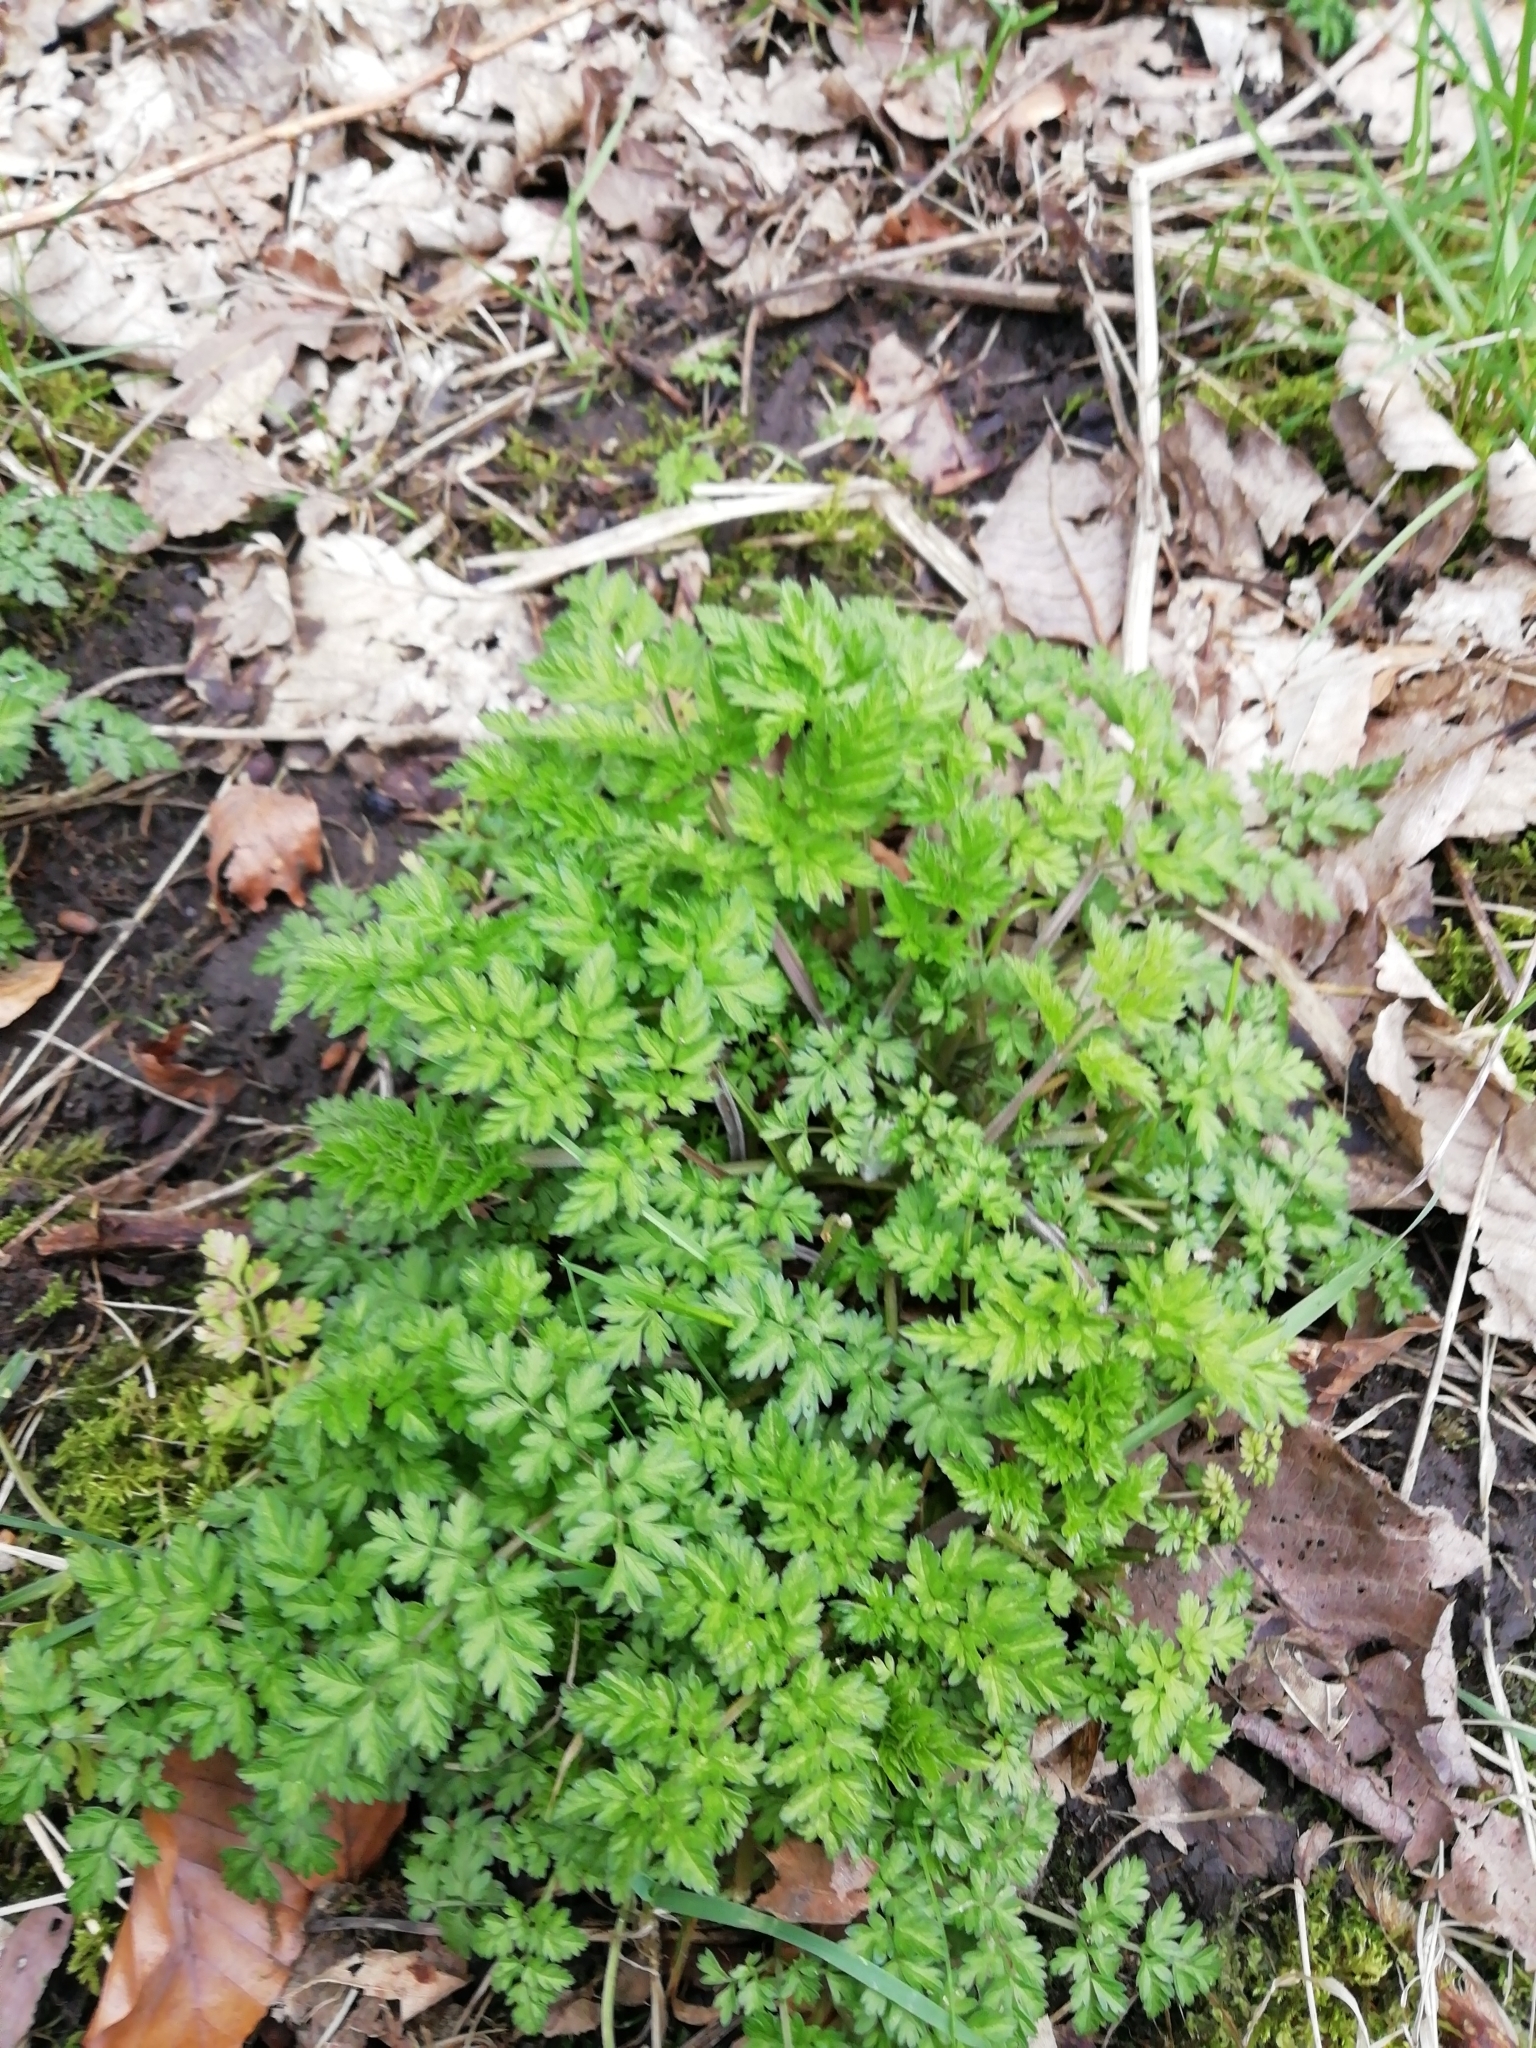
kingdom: Plantae
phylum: Tracheophyta
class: Magnoliopsida
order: Apiales
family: Apiaceae
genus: Anthriscus
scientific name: Anthriscus sylvestris
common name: Cow parsley
